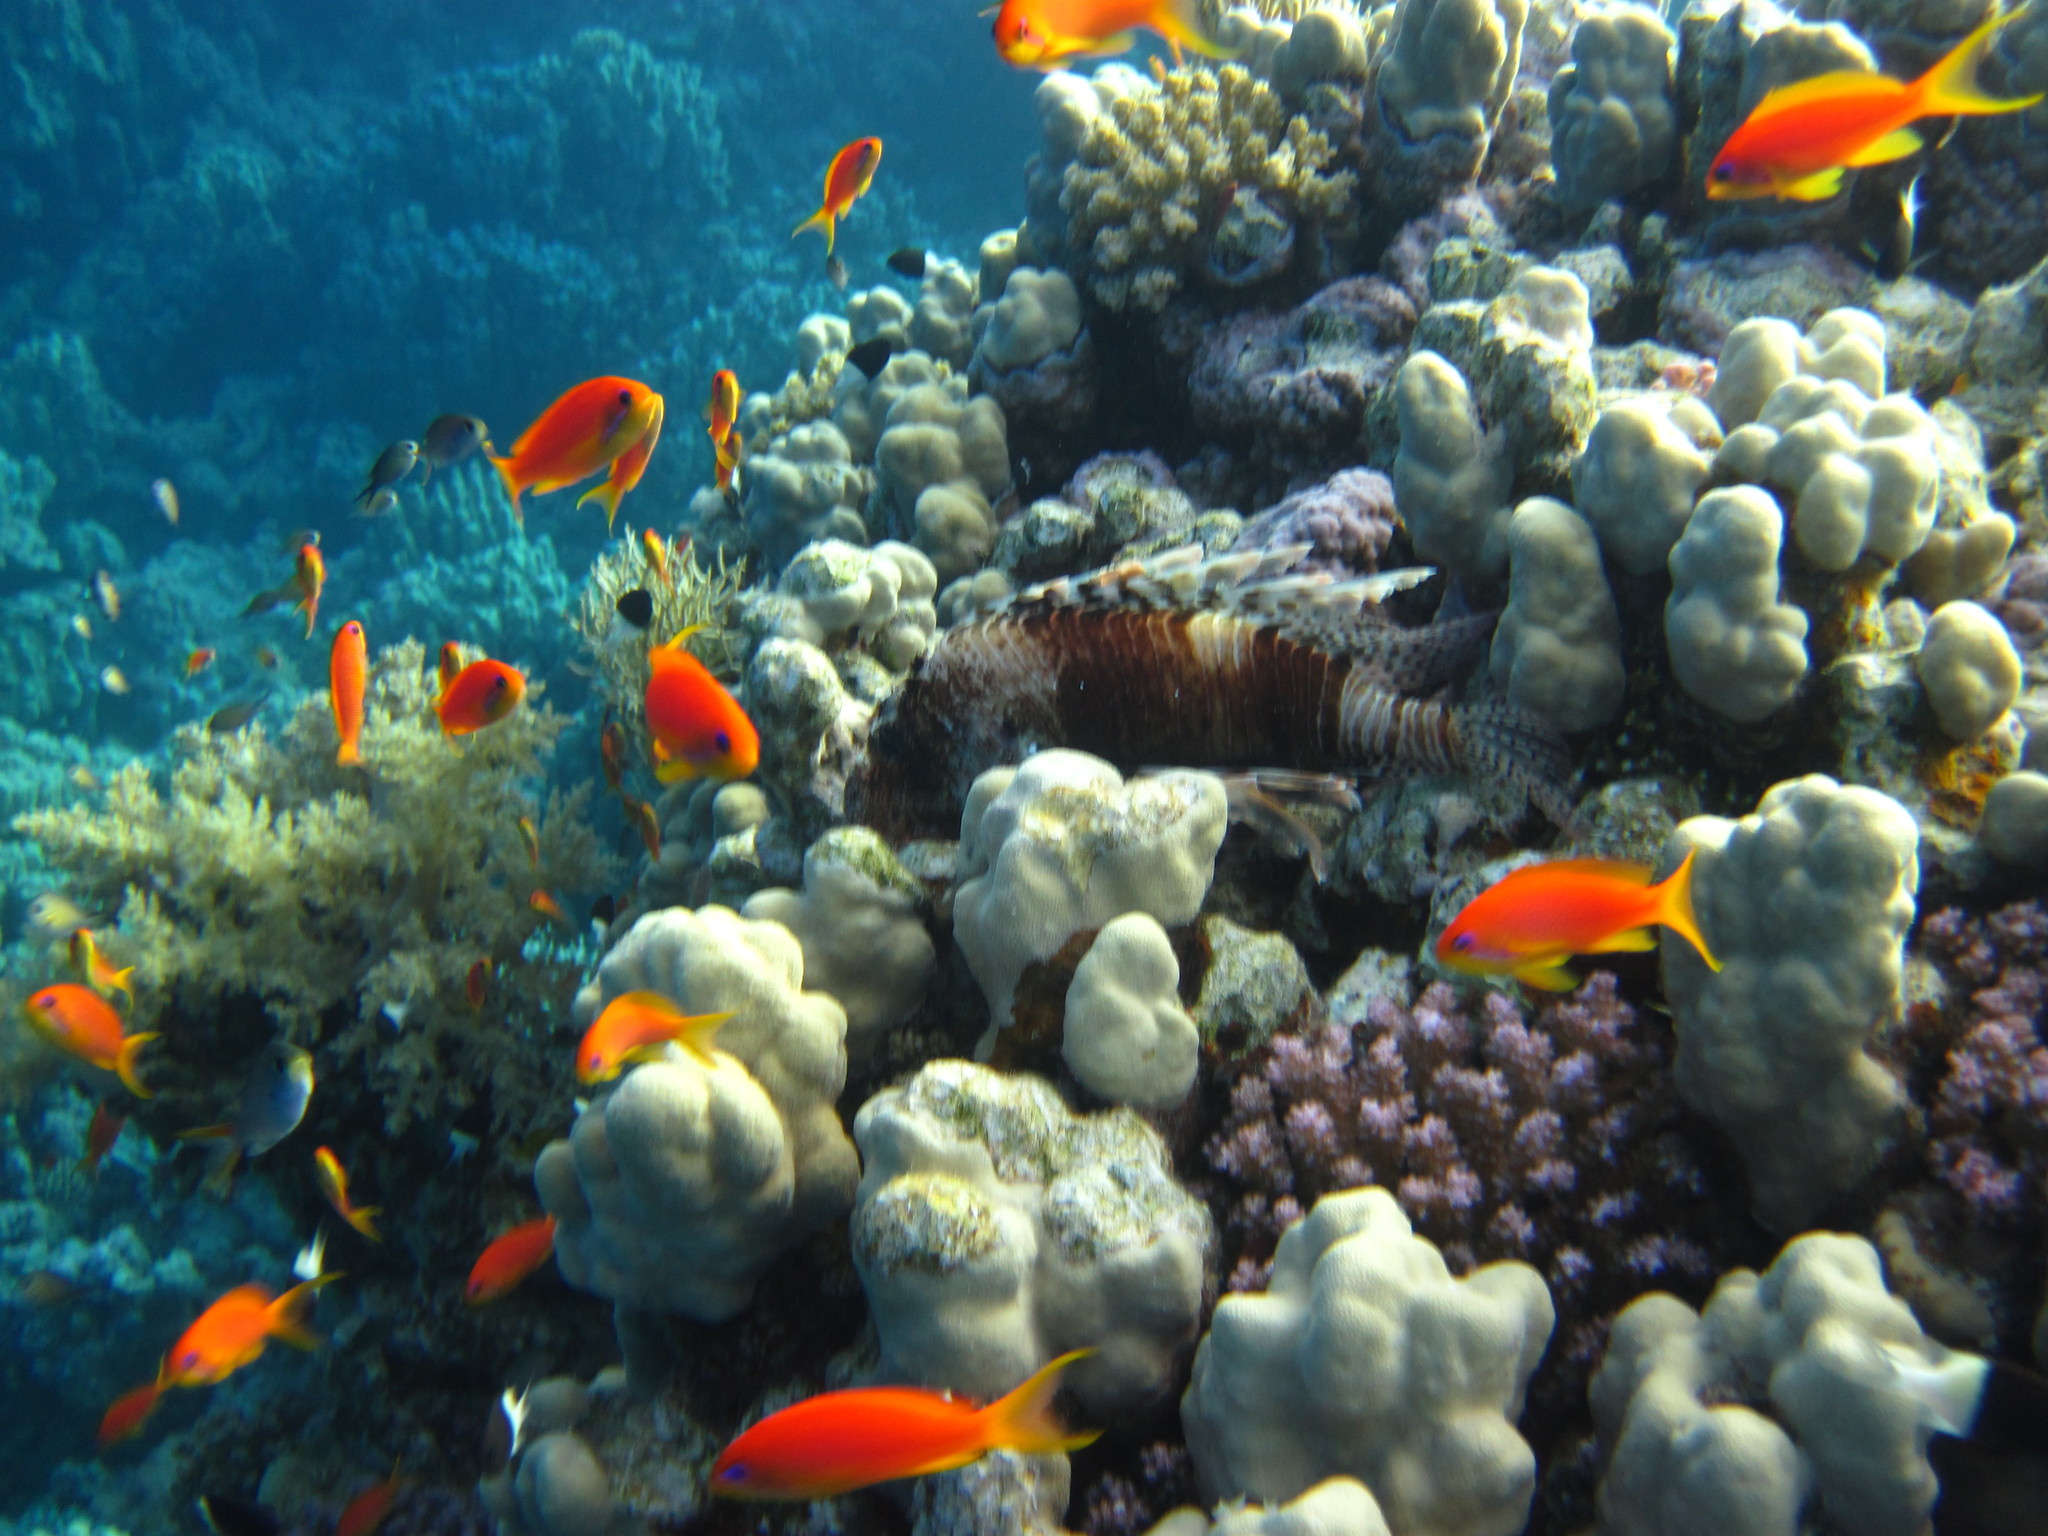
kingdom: Animalia
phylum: Chordata
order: Scorpaeniformes
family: Scorpaenidae
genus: Pterois
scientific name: Pterois miles
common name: Devil firefish
